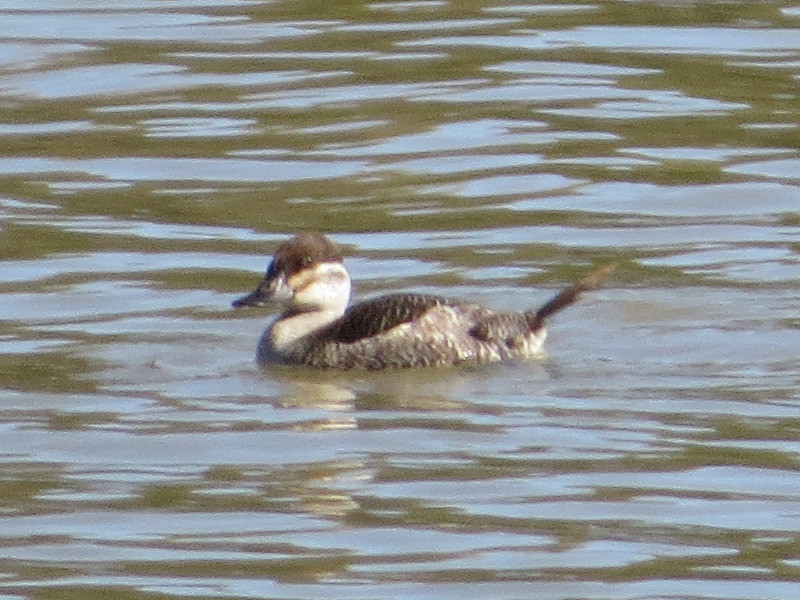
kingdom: Animalia
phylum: Chordata
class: Aves
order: Anseriformes
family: Anatidae
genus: Oxyura
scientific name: Oxyura jamaicensis
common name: Ruddy duck
